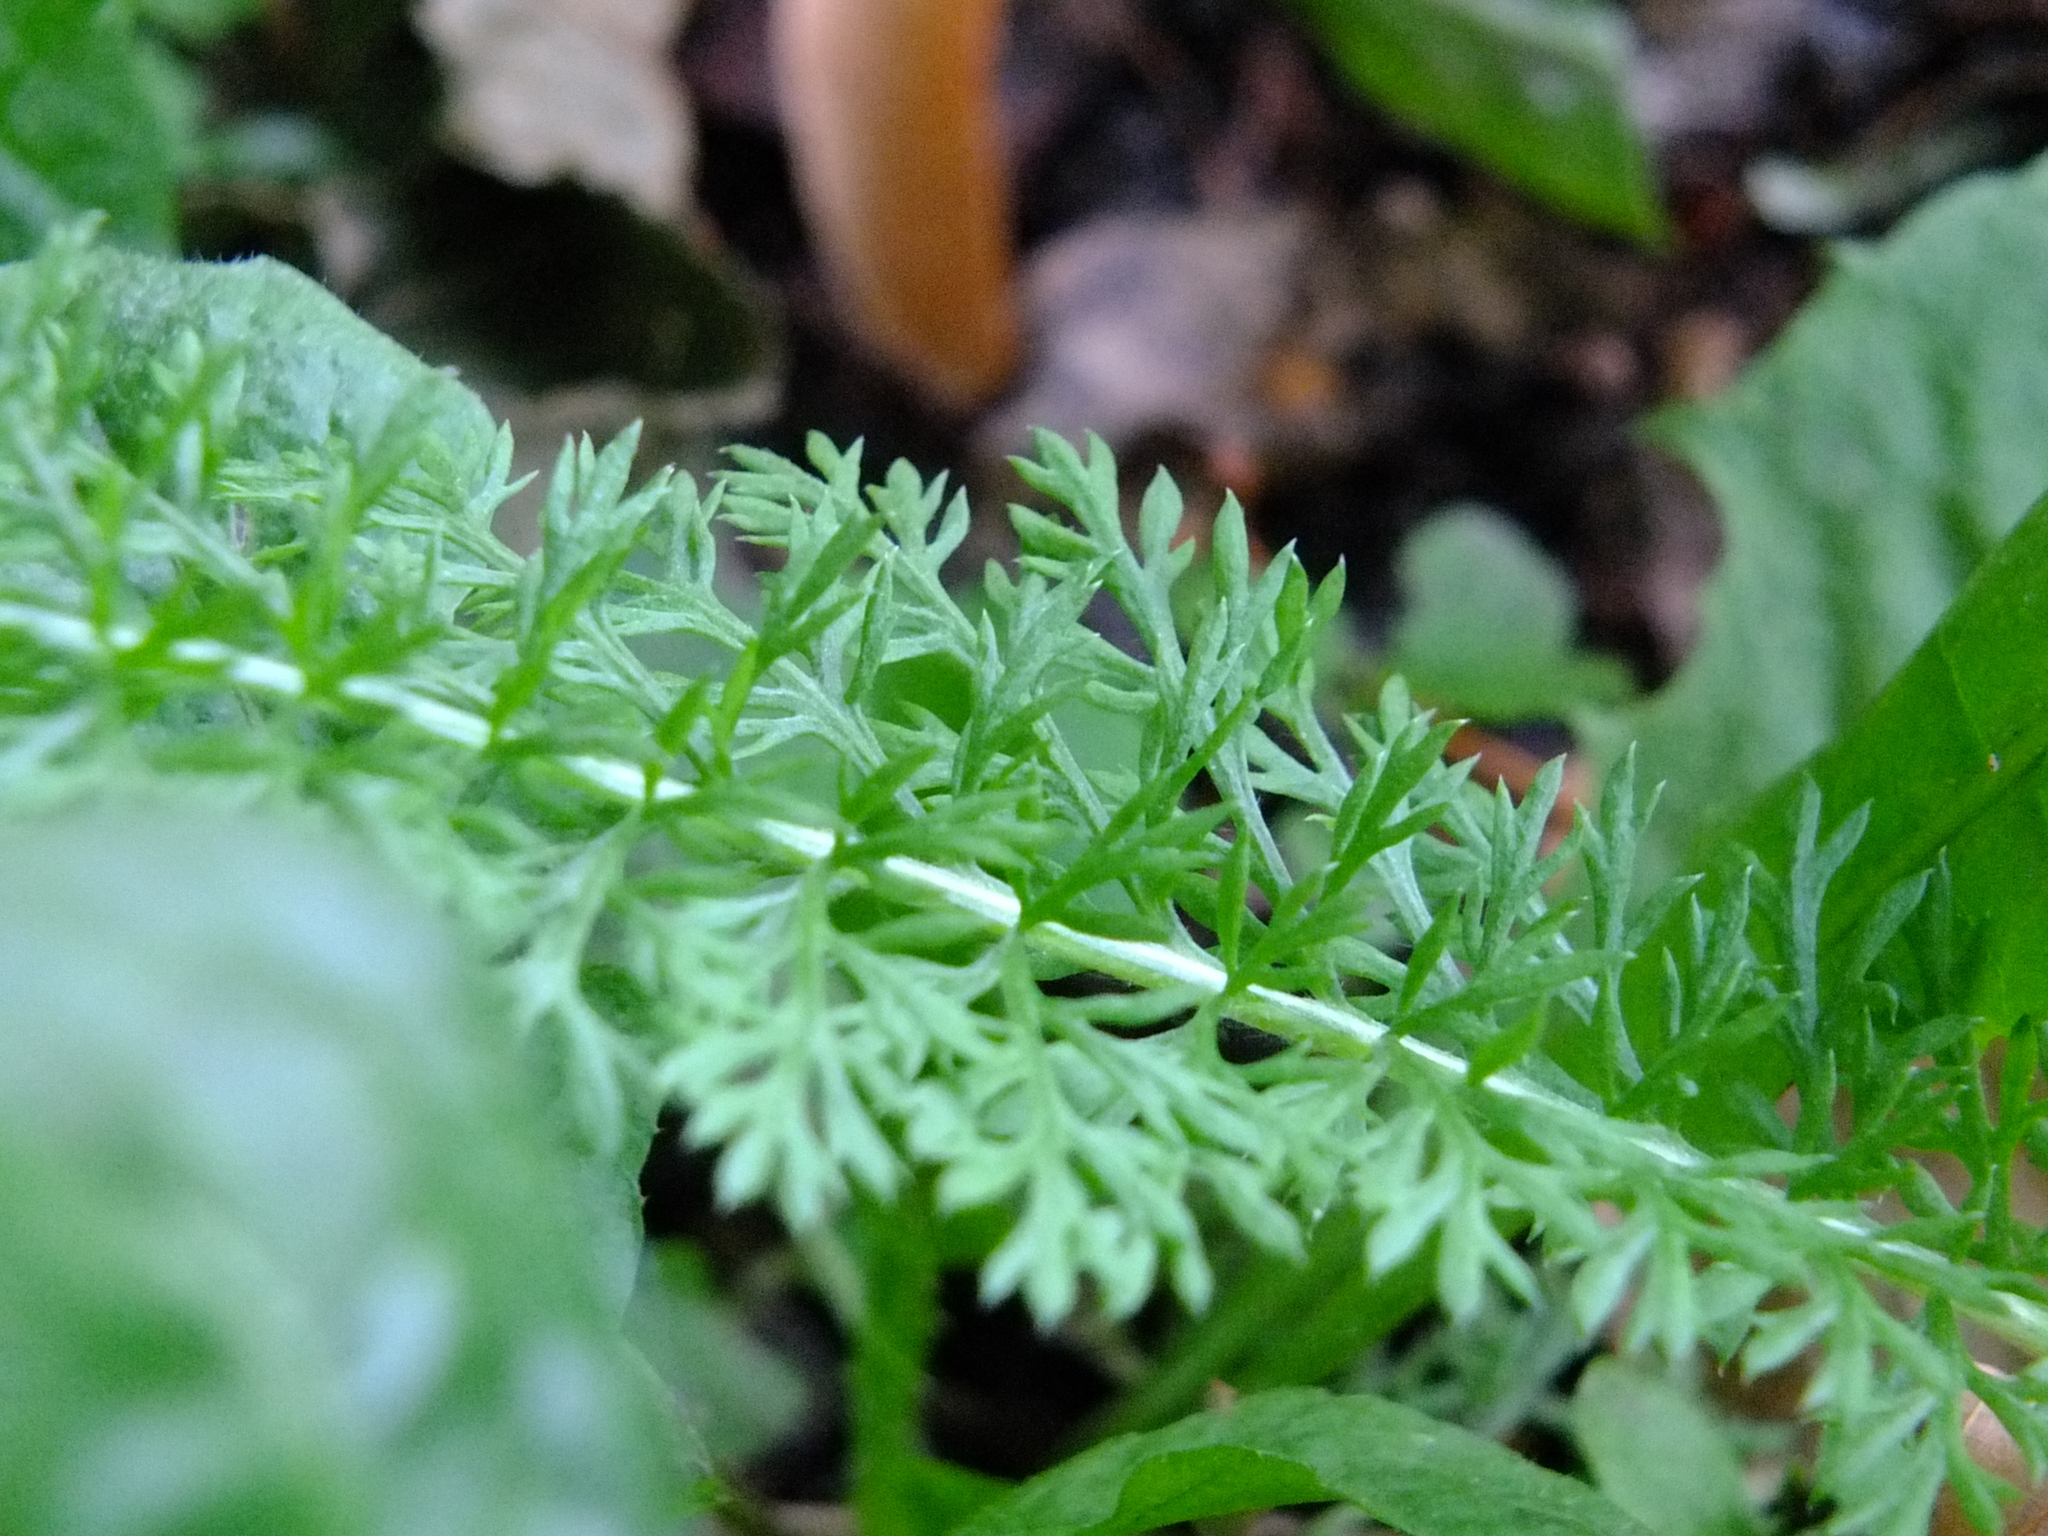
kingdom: Plantae
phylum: Tracheophyta
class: Magnoliopsida
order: Asterales
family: Asteraceae
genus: Achillea
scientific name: Achillea millefolium
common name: Yarrow
